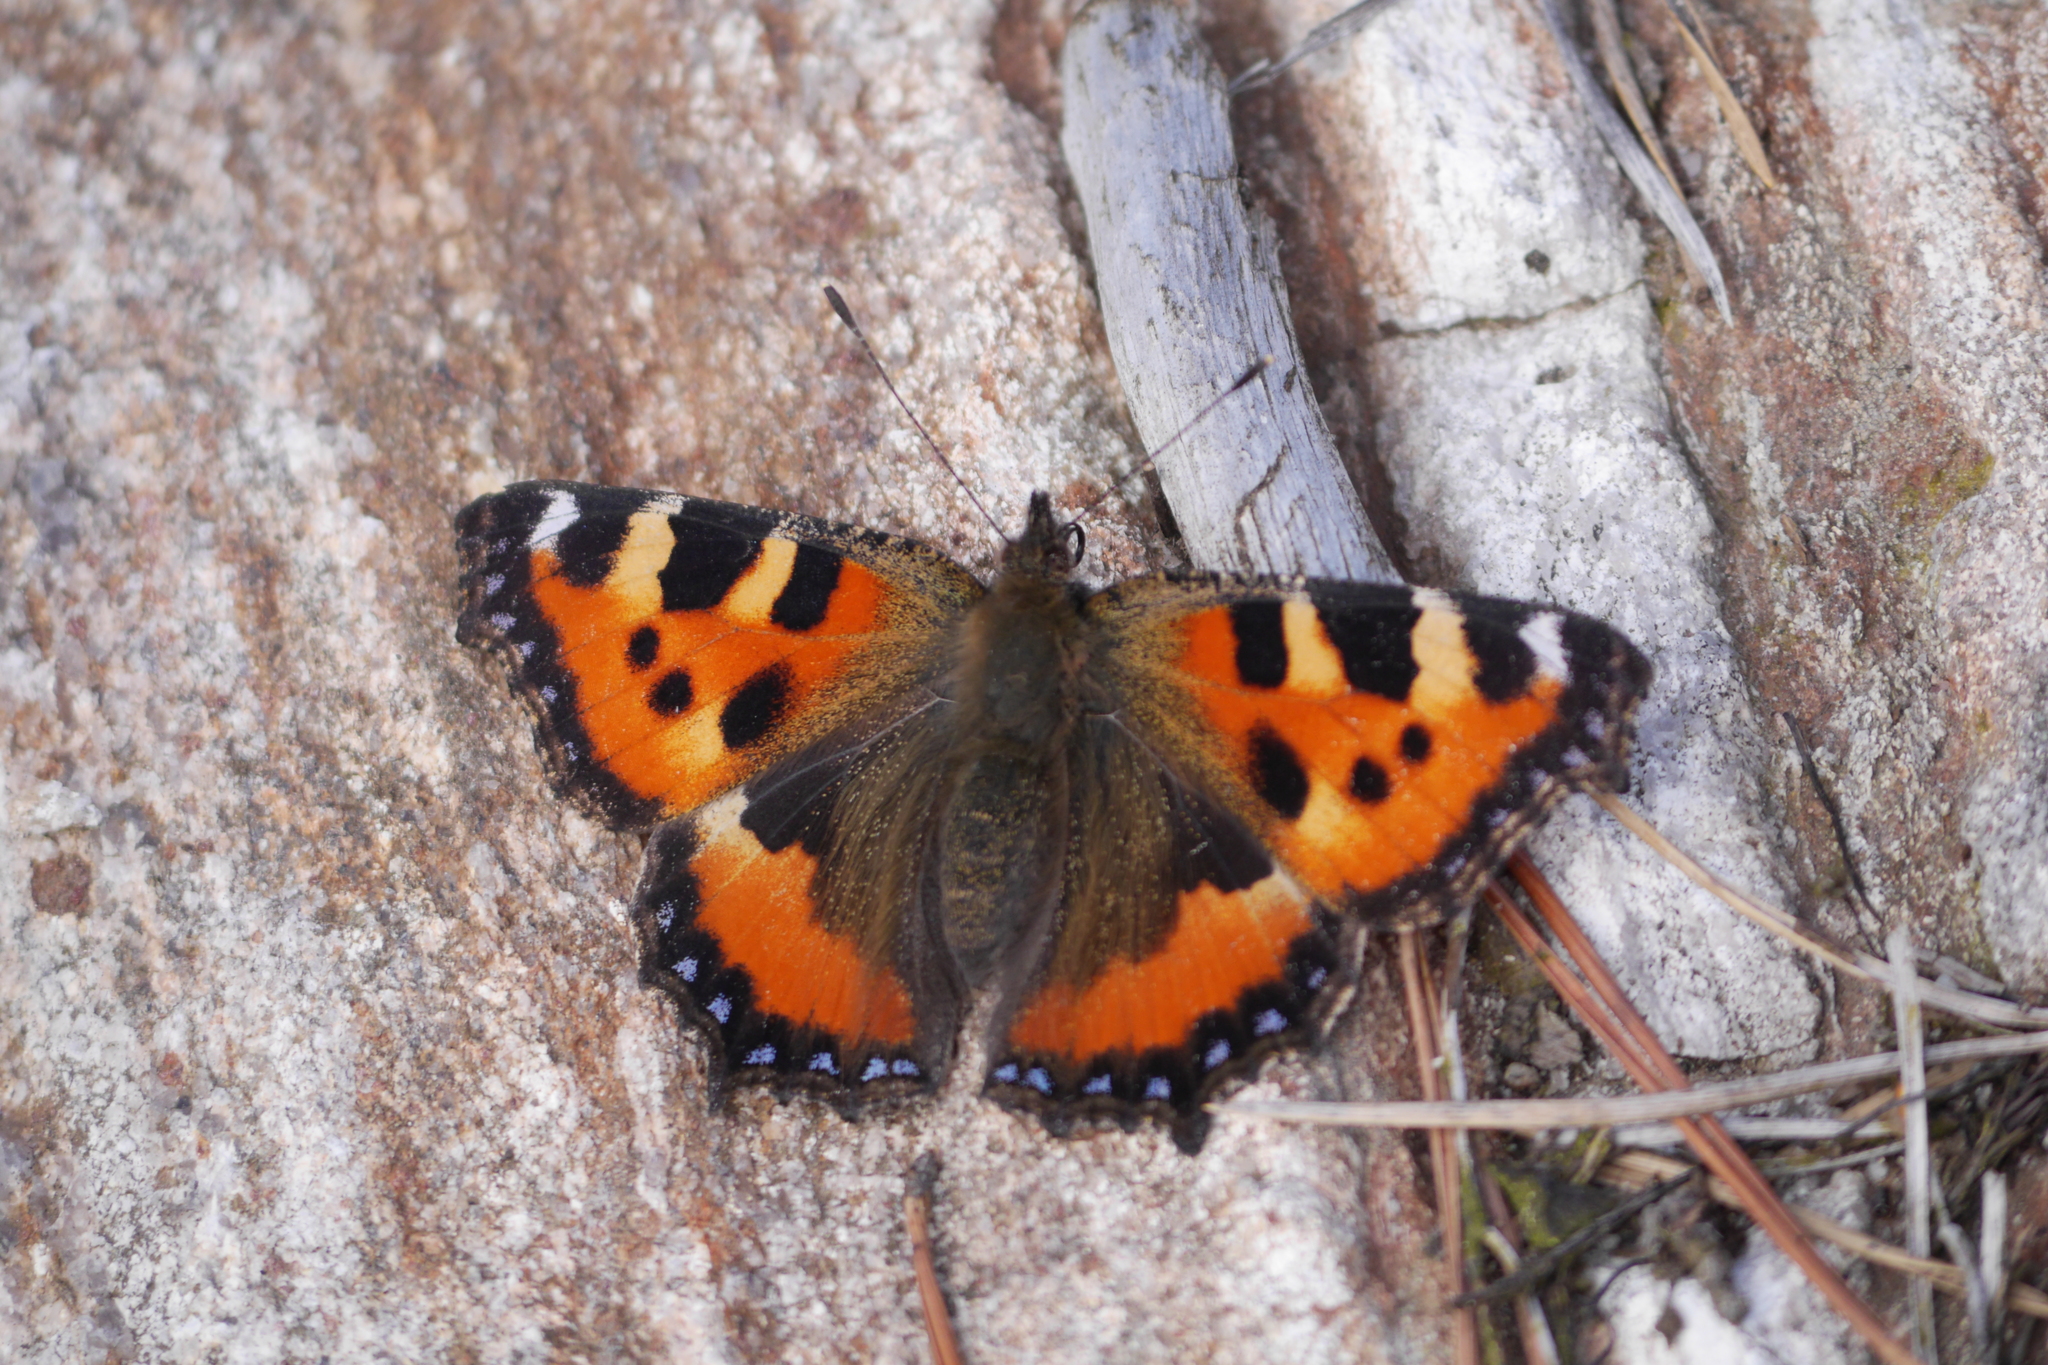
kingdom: Animalia
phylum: Arthropoda
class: Insecta
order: Lepidoptera
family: Nymphalidae
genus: Aglais
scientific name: Aglais urticae
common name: Small tortoiseshell
